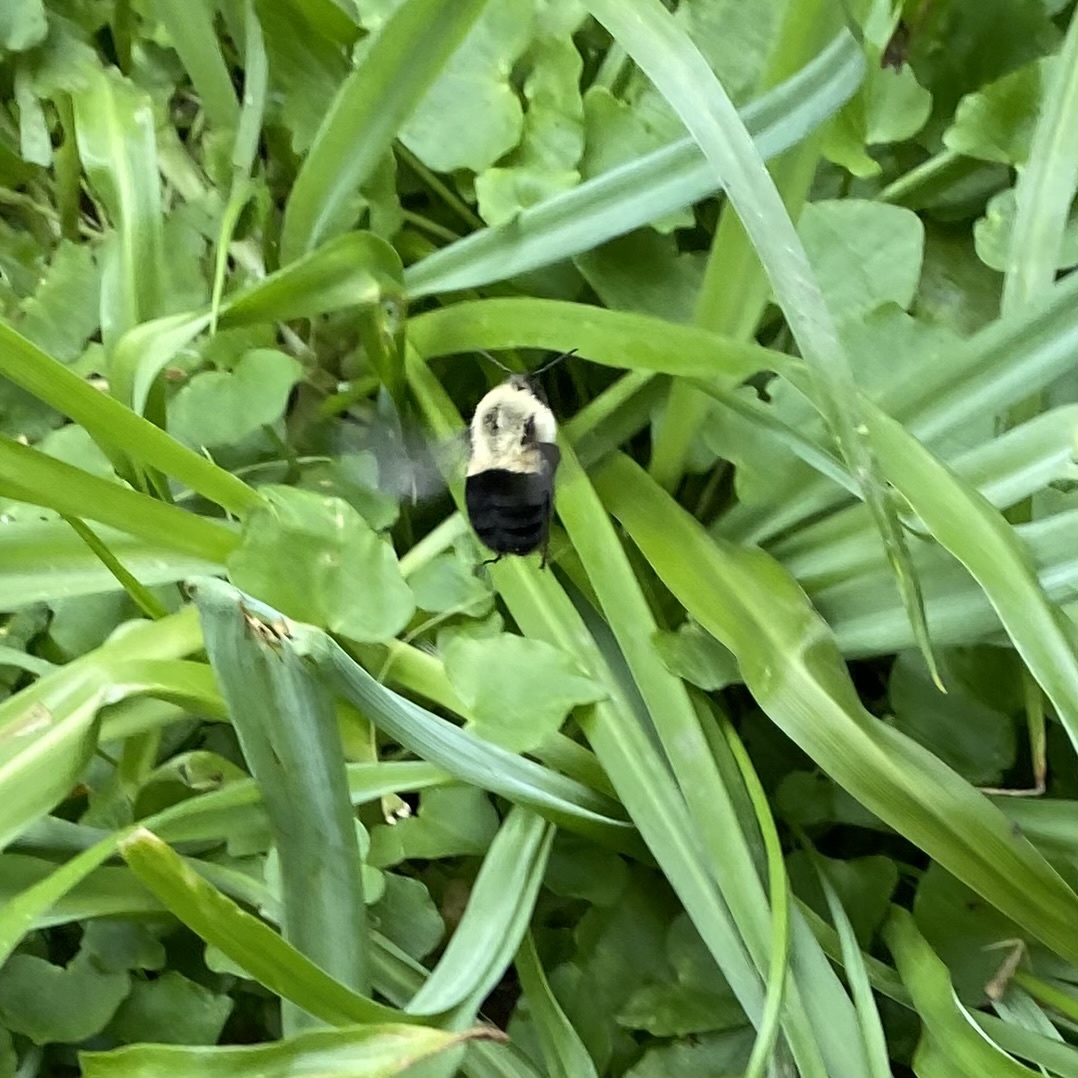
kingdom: Animalia
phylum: Arthropoda
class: Insecta
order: Hymenoptera
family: Apidae
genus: Bombus
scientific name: Bombus impatiens
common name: Common eastern bumble bee
